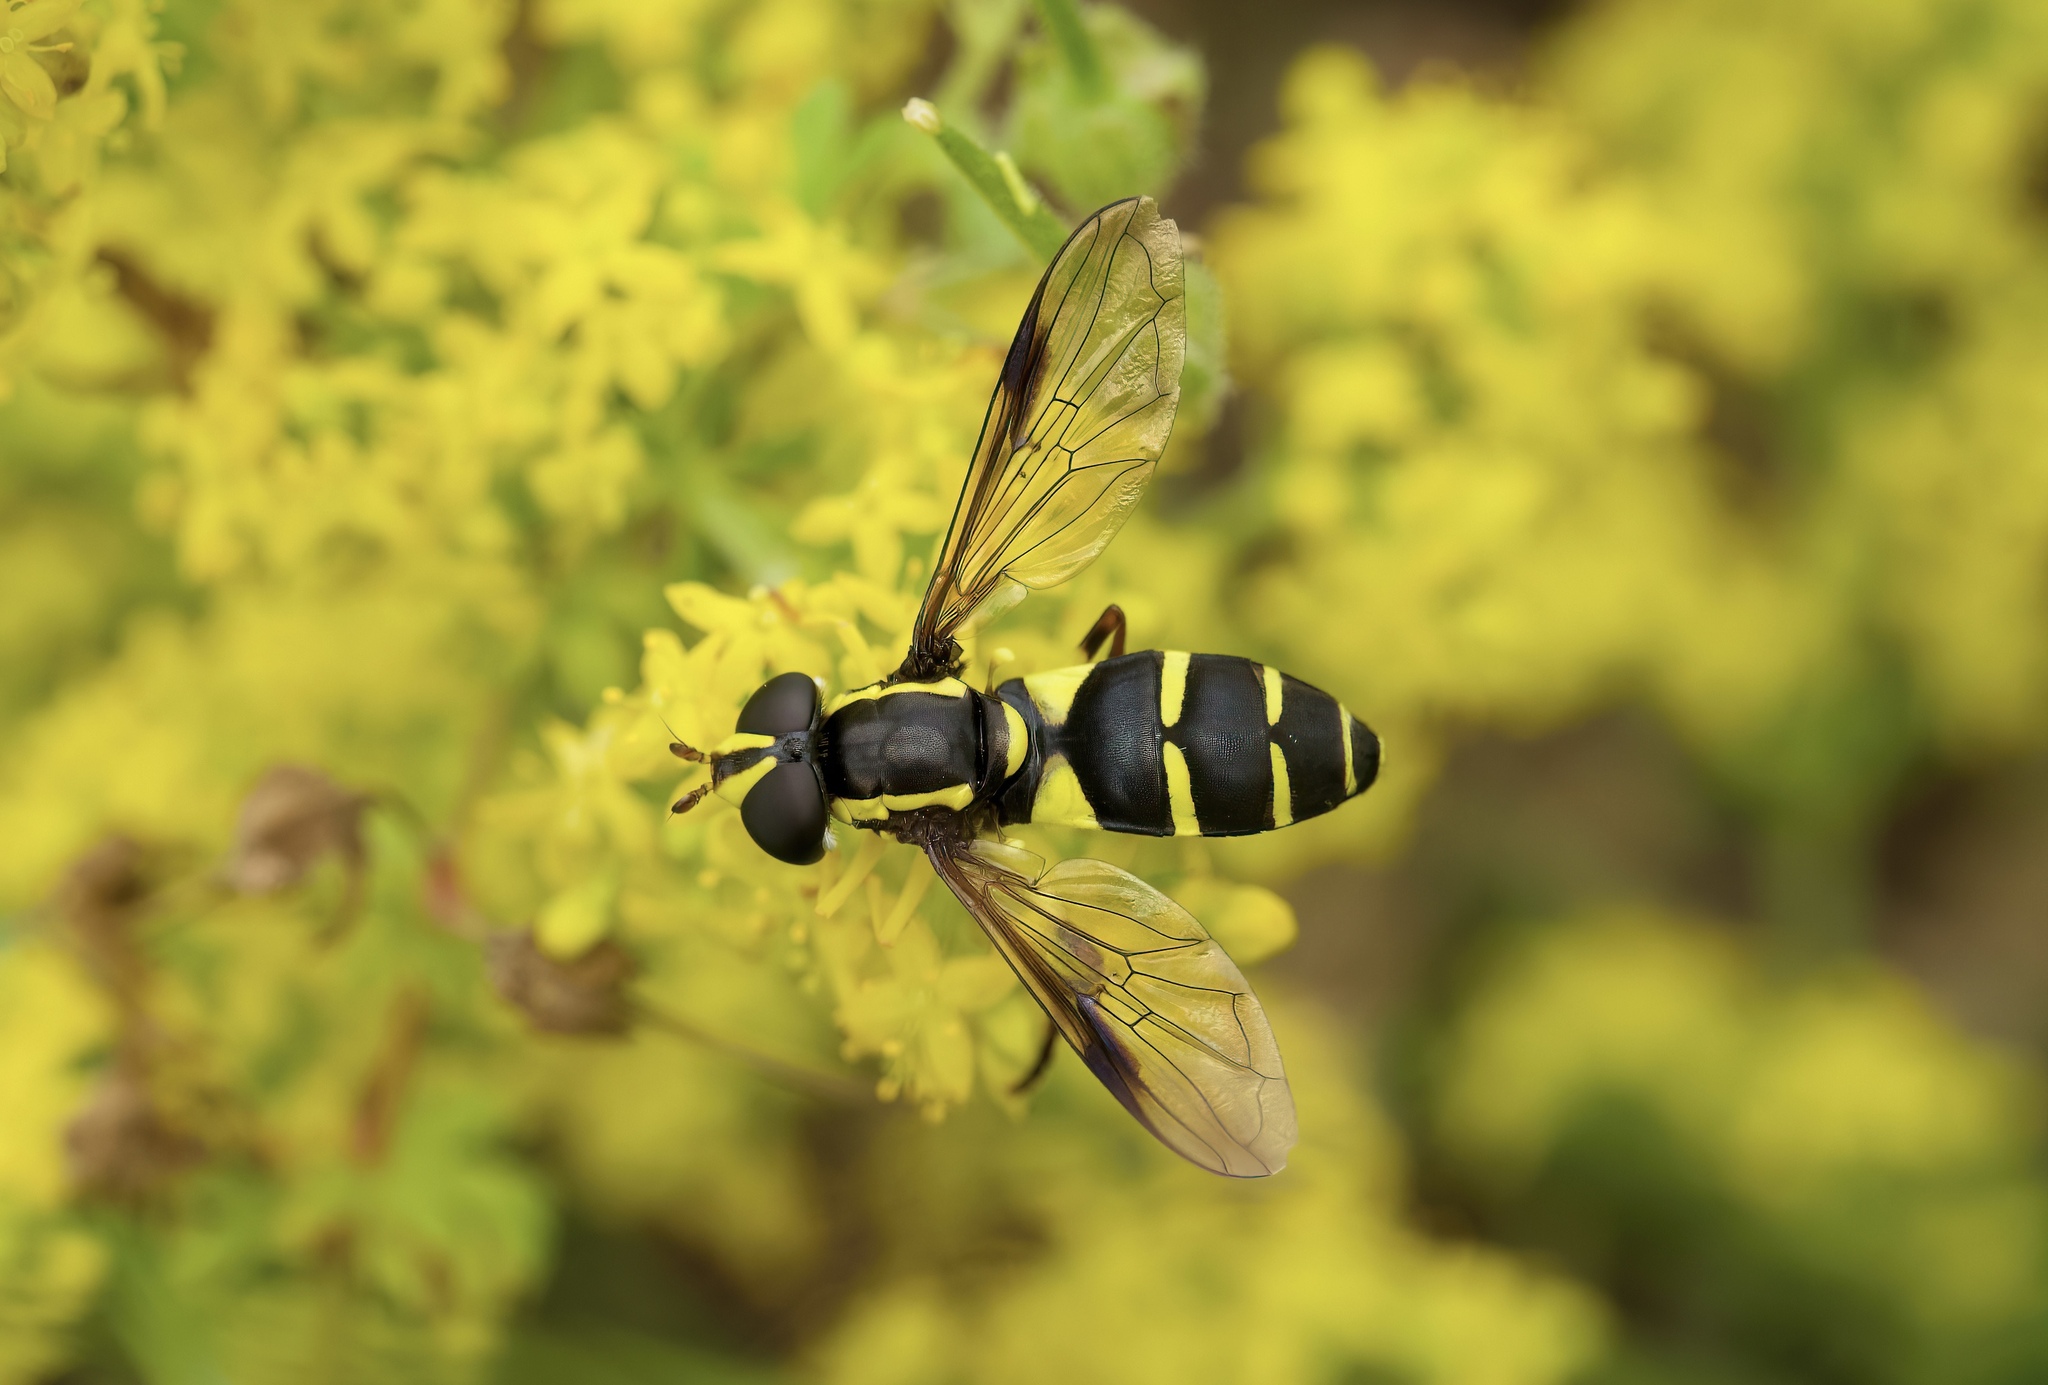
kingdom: Animalia
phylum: Arthropoda
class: Insecta
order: Diptera
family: Syrphidae
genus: Philhelius
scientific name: Philhelius pedissequum
